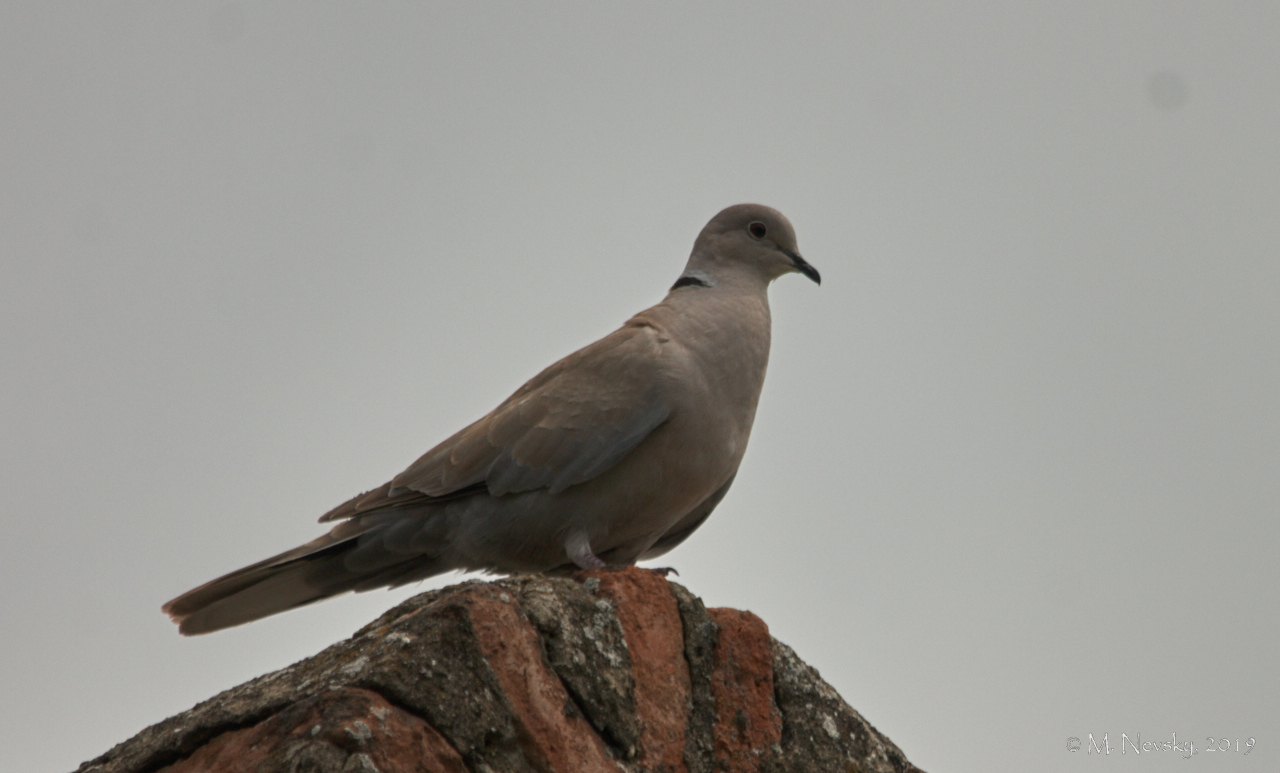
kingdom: Animalia
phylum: Chordata
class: Aves
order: Columbiformes
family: Columbidae
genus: Streptopelia
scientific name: Streptopelia decaocto
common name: Eurasian collared dove
